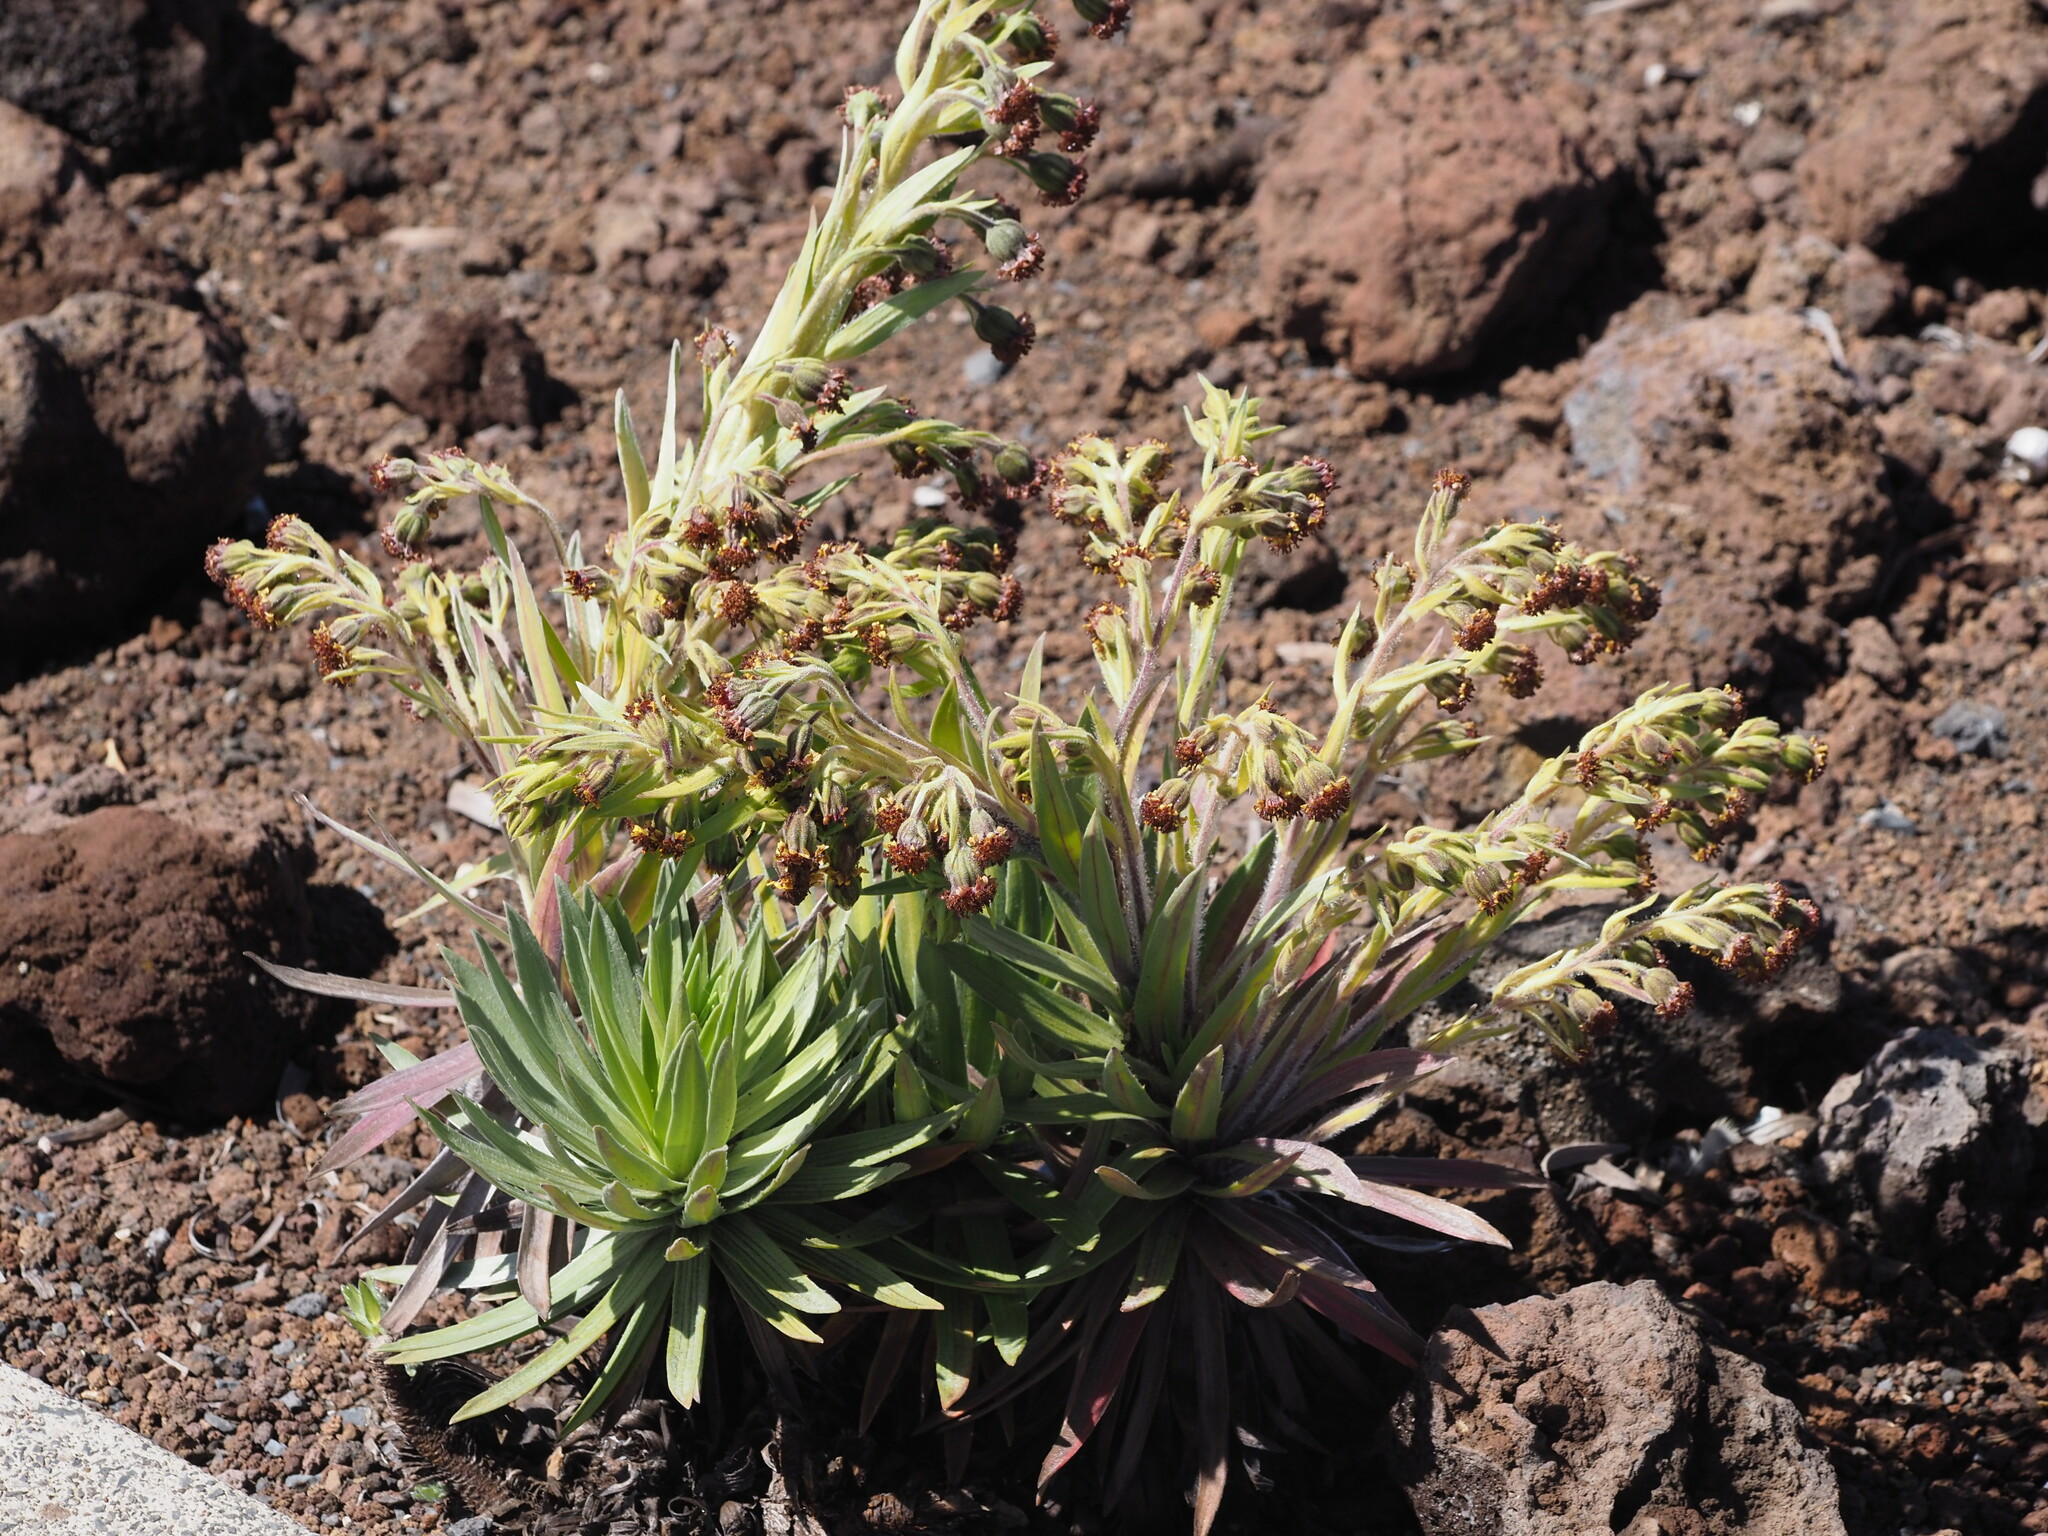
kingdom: Plantae
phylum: Tracheophyta
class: Magnoliopsida
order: Asterales
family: Asteraceae
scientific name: Asteraceae
